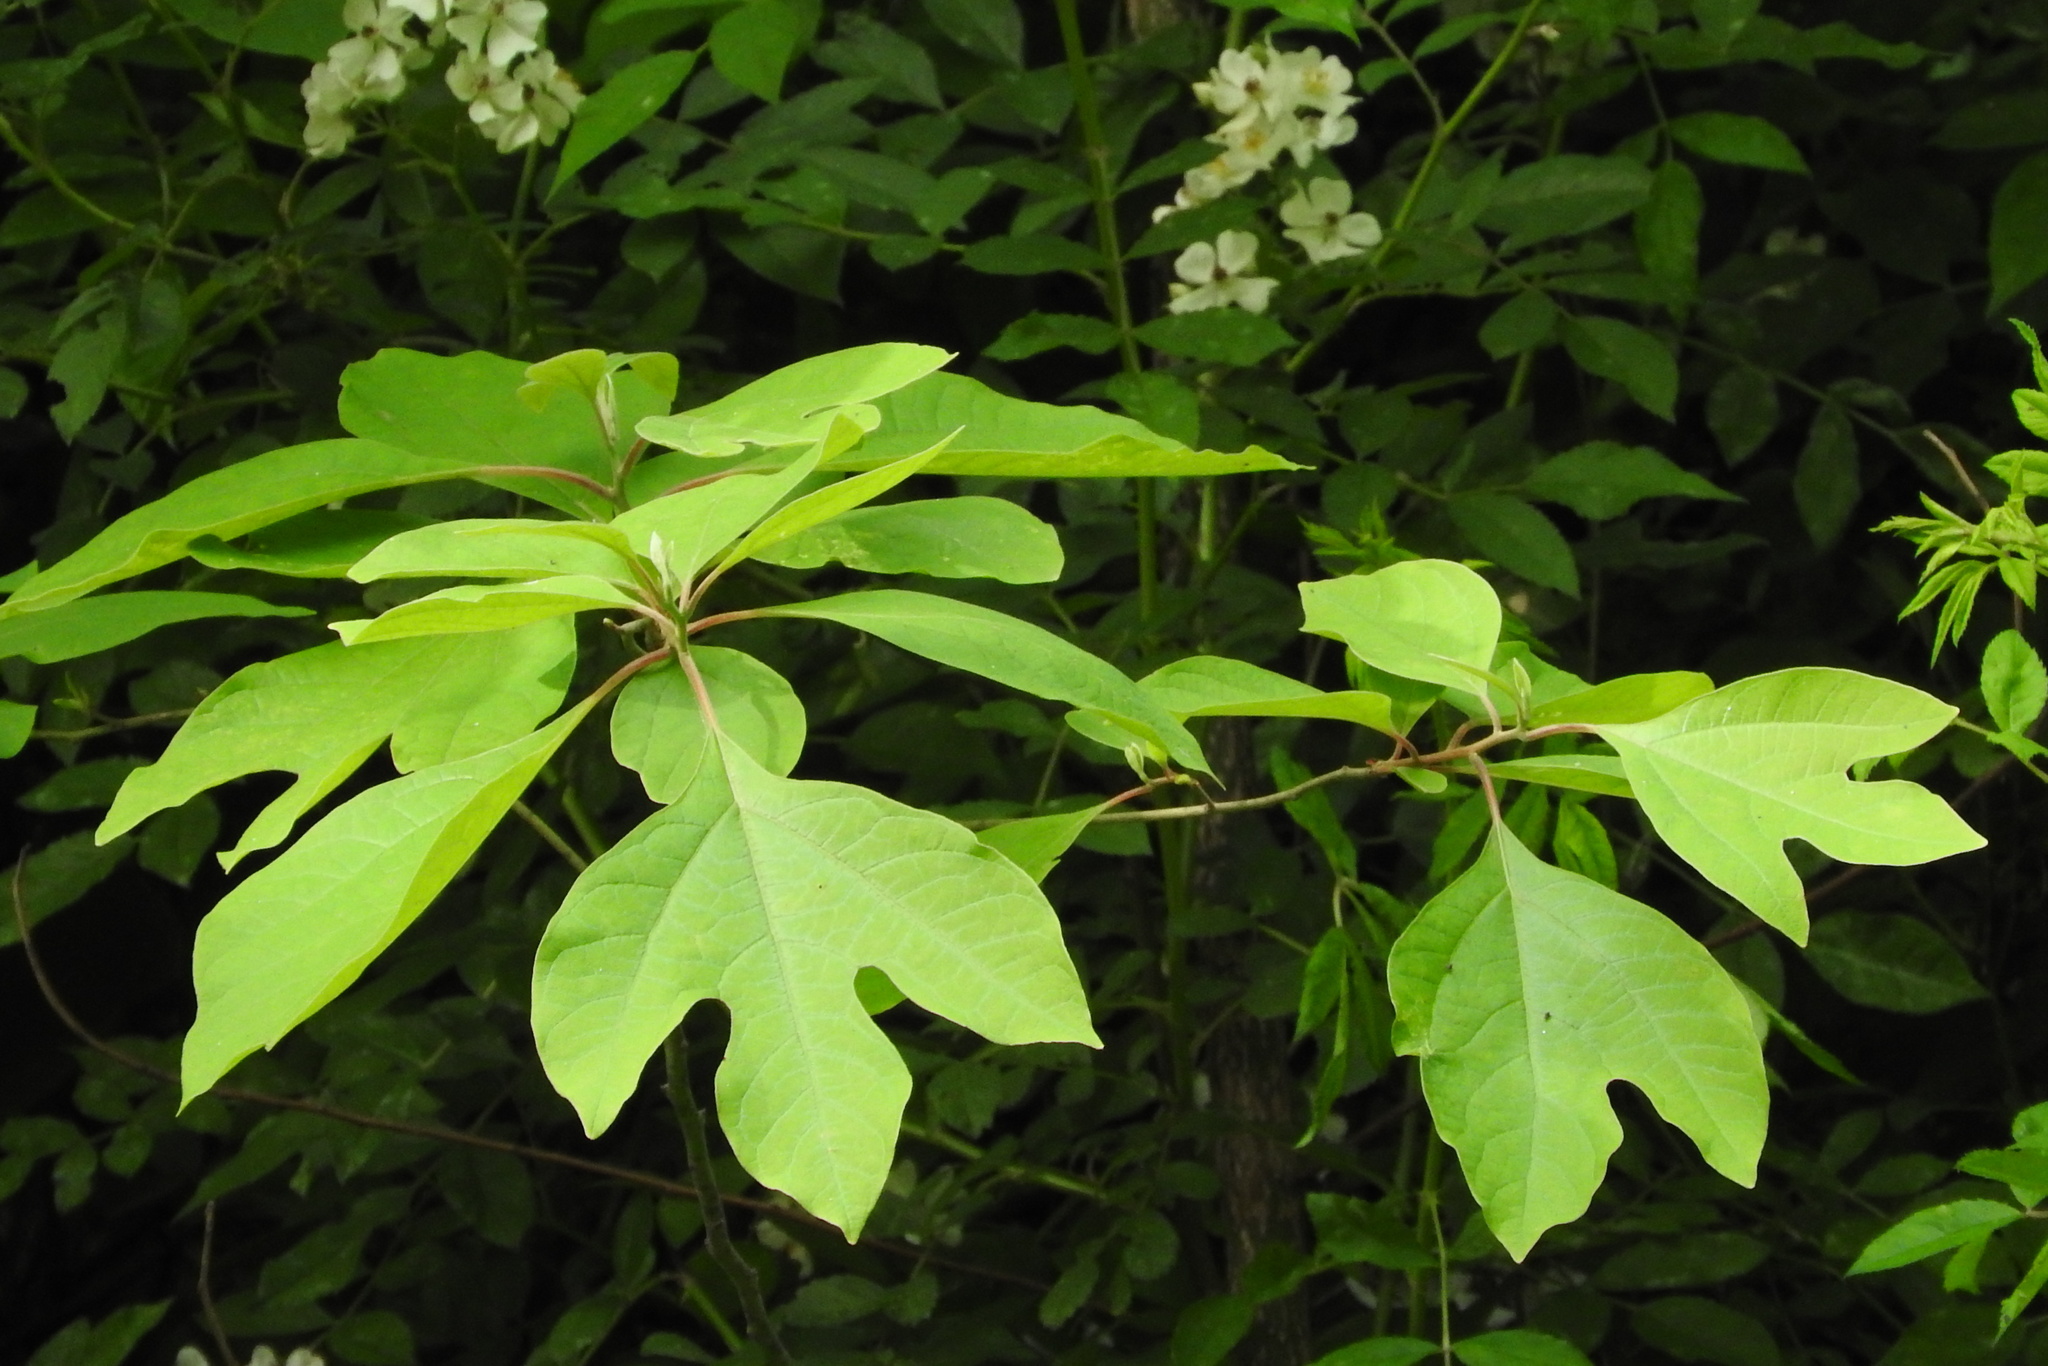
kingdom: Plantae
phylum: Tracheophyta
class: Magnoliopsida
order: Laurales
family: Lauraceae
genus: Sassafras
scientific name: Sassafras albidum
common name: Sassafras
